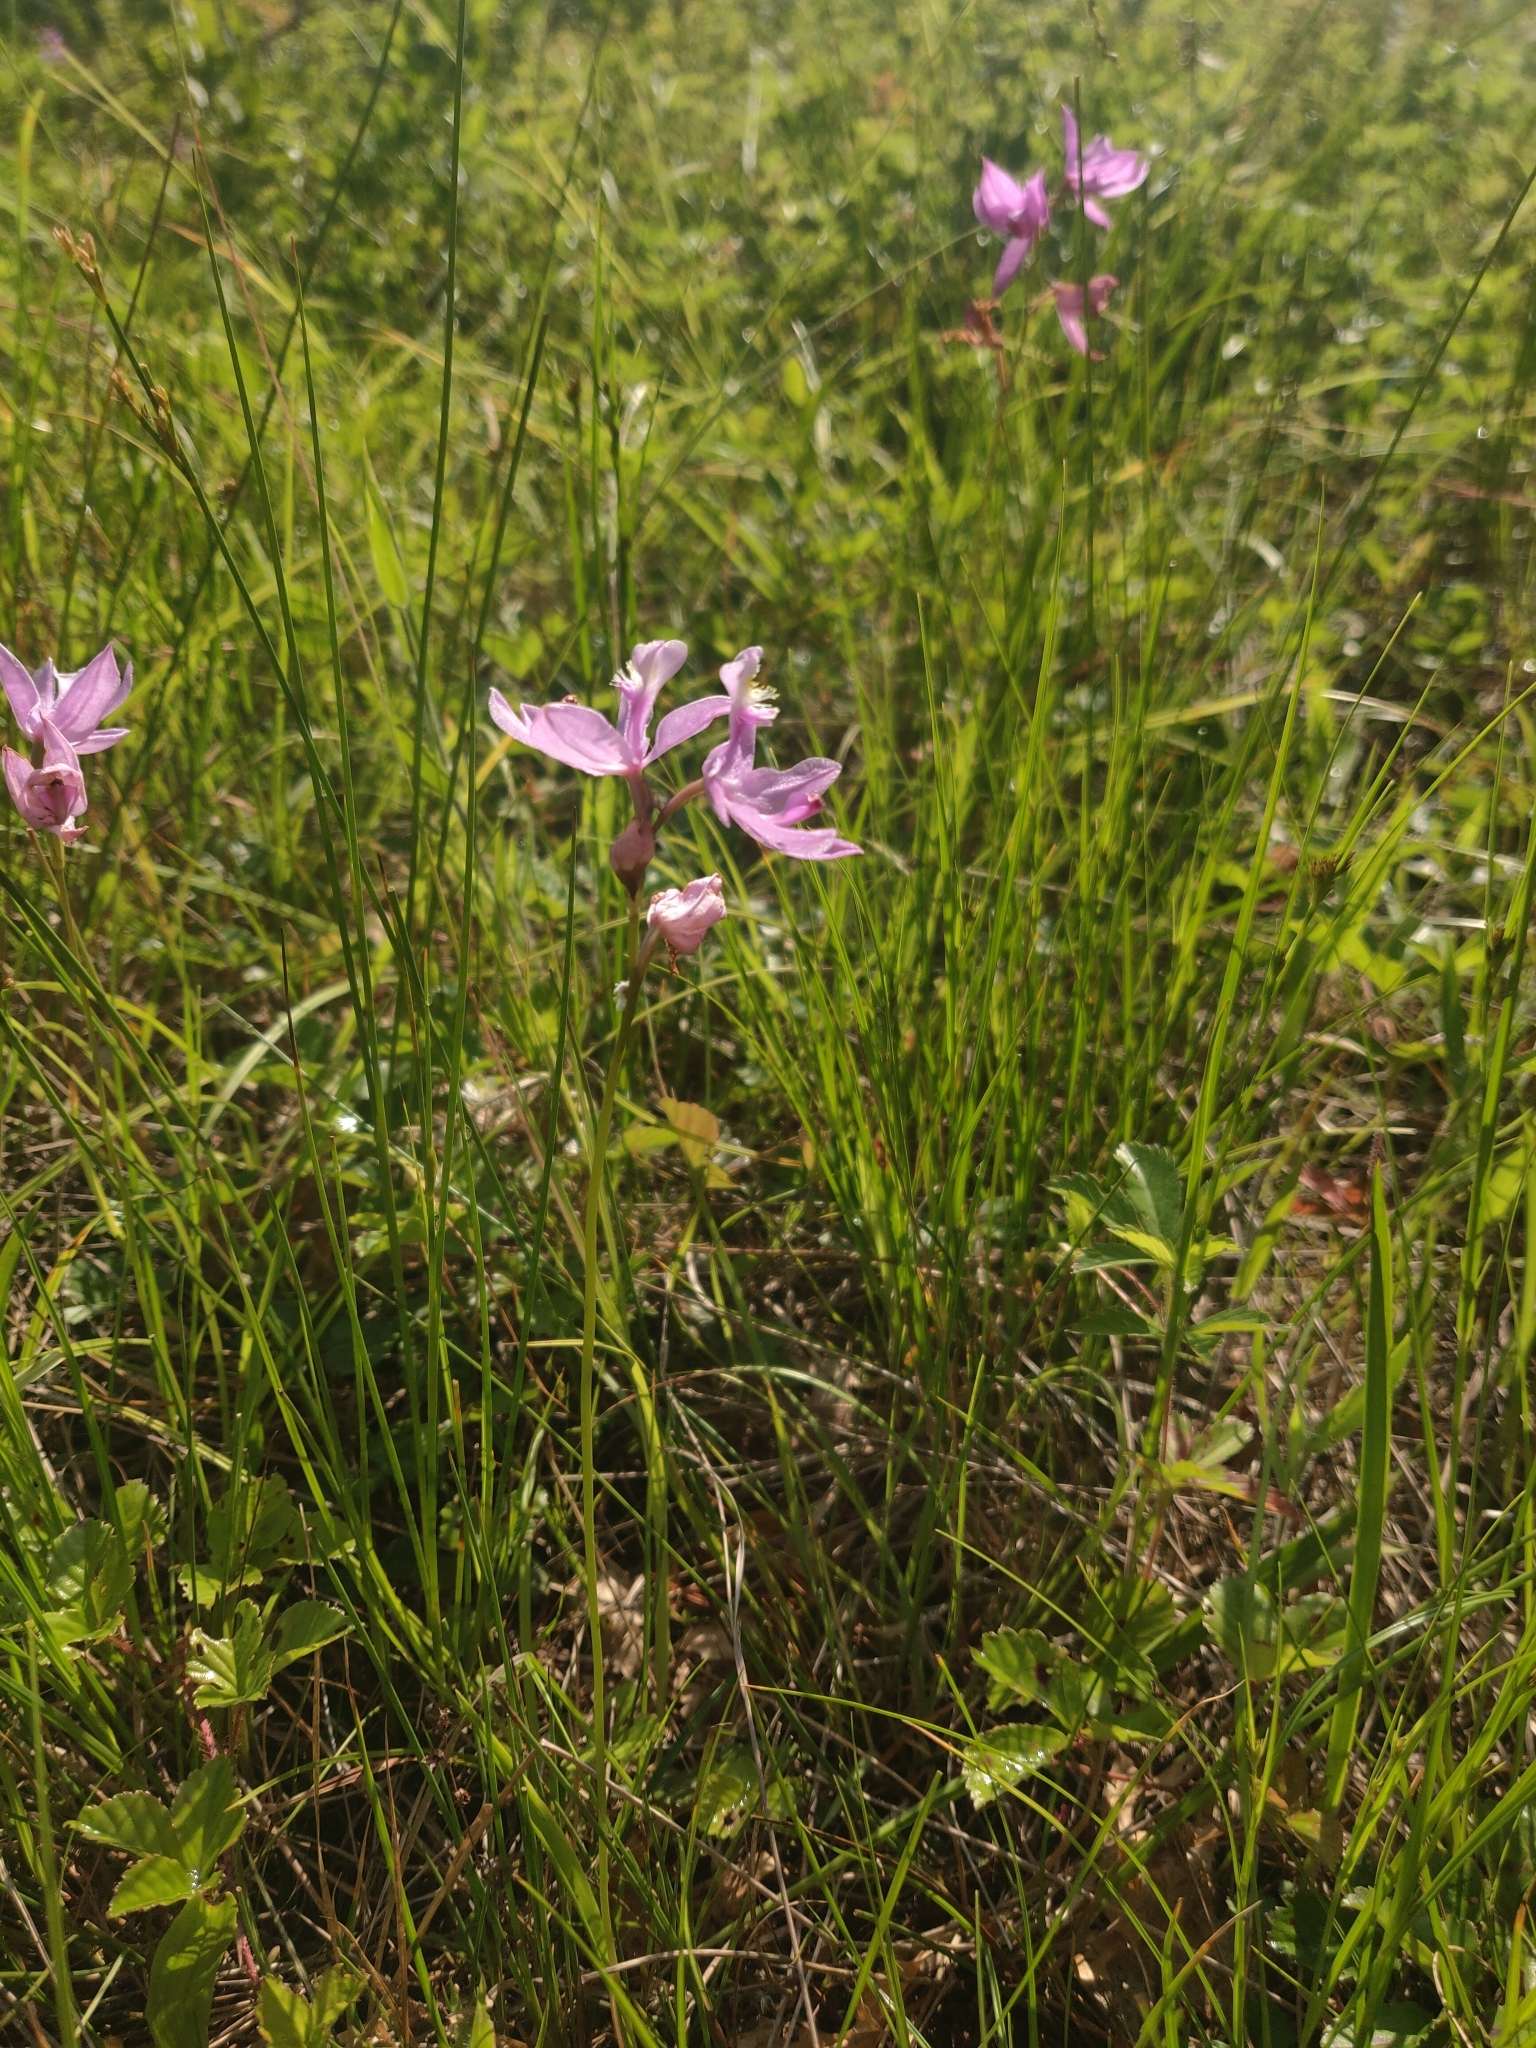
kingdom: Plantae
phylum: Tracheophyta
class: Liliopsida
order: Asparagales
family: Orchidaceae
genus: Calopogon
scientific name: Calopogon tuberosus
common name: Grass-pink
